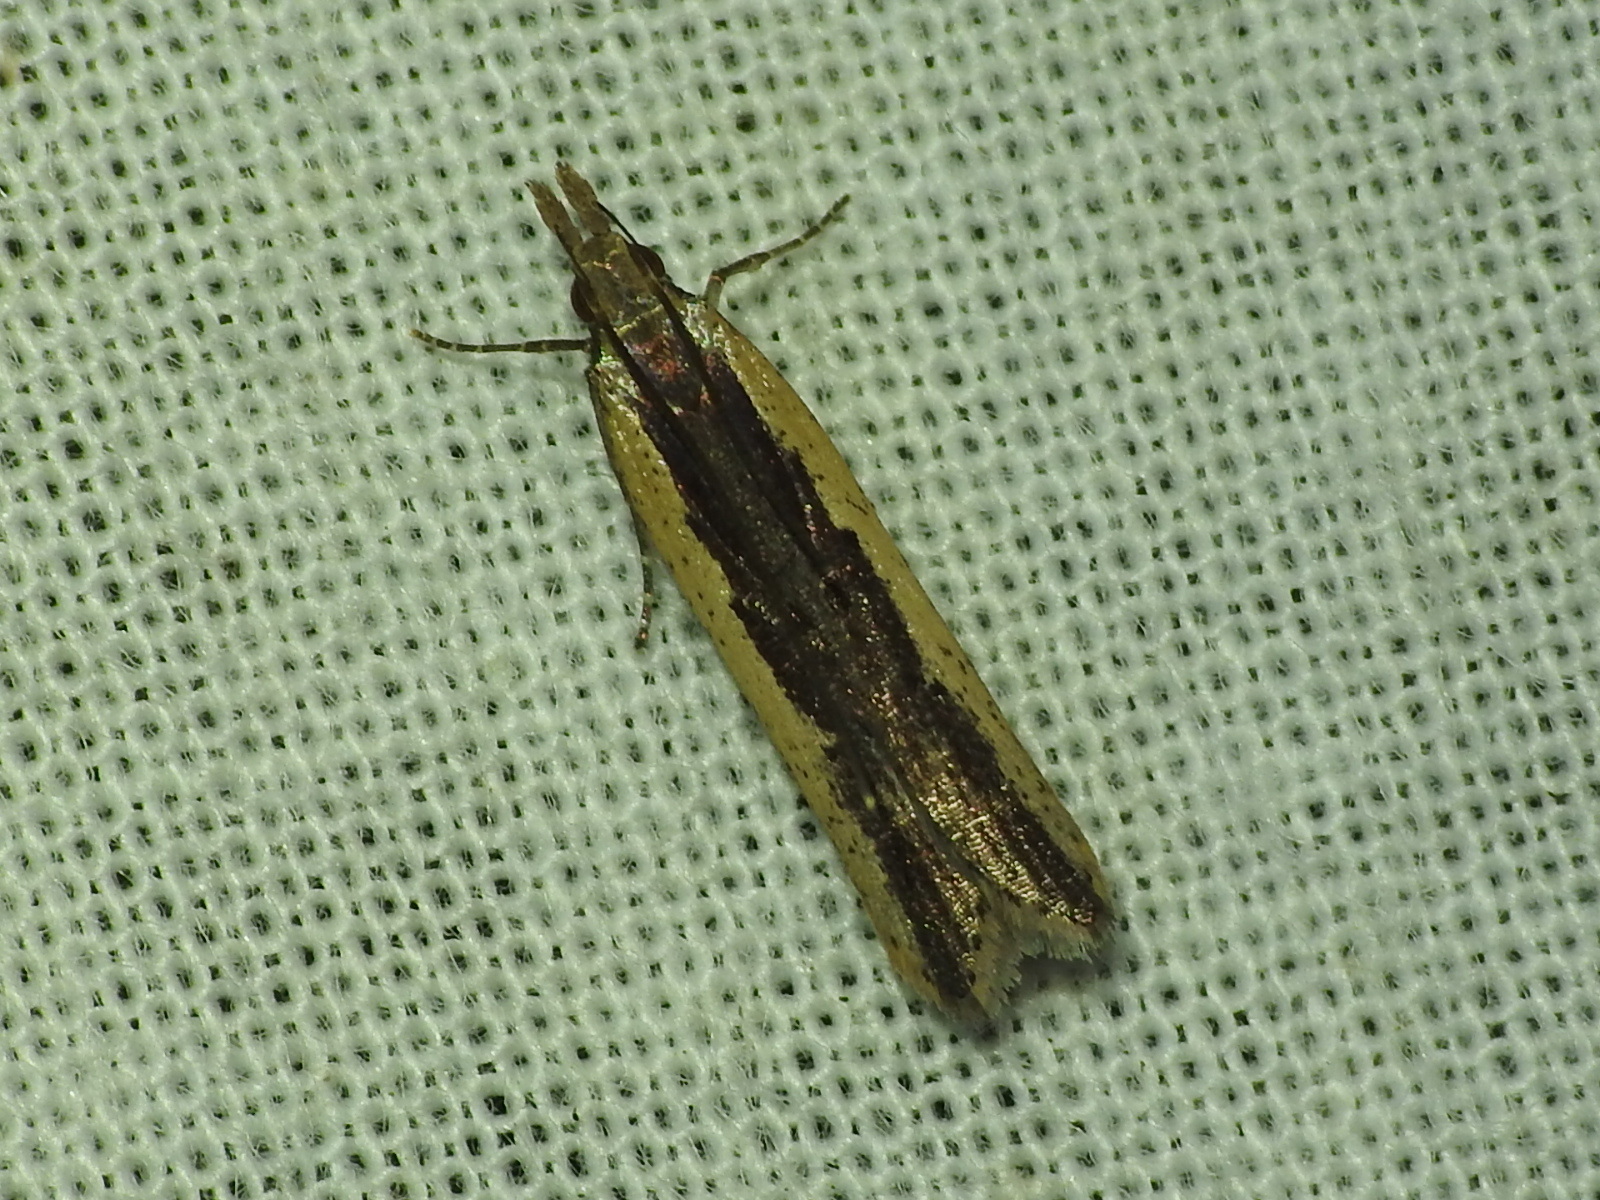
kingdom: Animalia
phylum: Arthropoda
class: Insecta
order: Lepidoptera
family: Gelechiidae
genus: Dichomeris
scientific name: Dichomeris ligulella
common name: Moth
